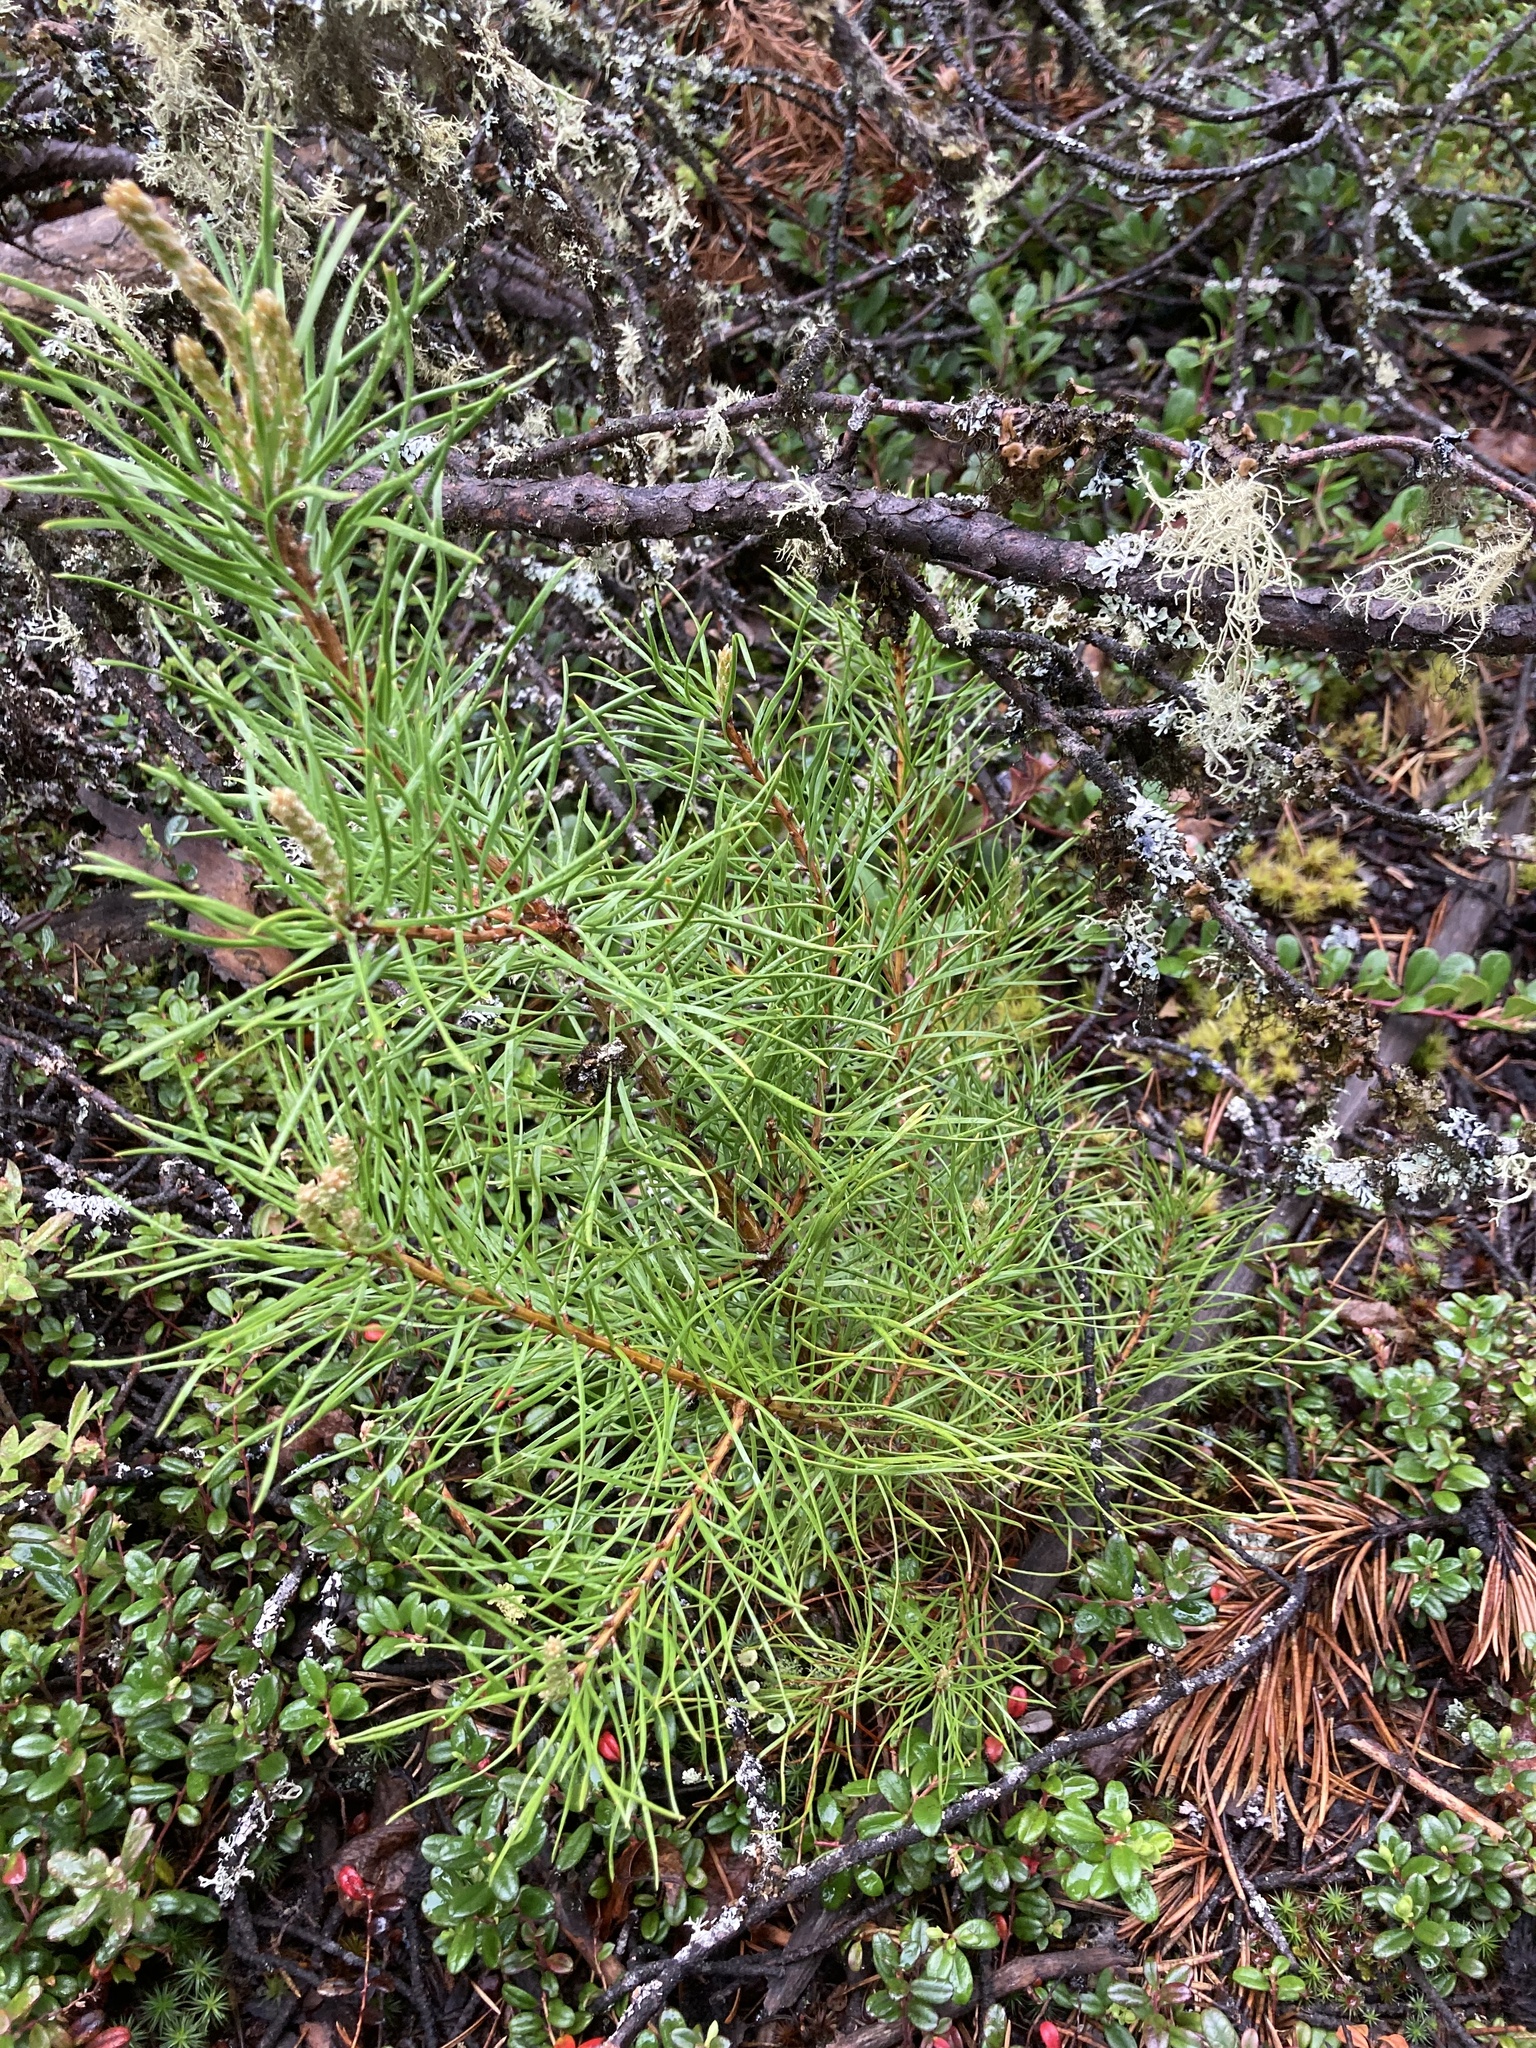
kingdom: Plantae
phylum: Tracheophyta
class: Pinopsida
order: Pinales
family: Pinaceae
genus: Pinus
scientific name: Pinus banksiana
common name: Jack pine
